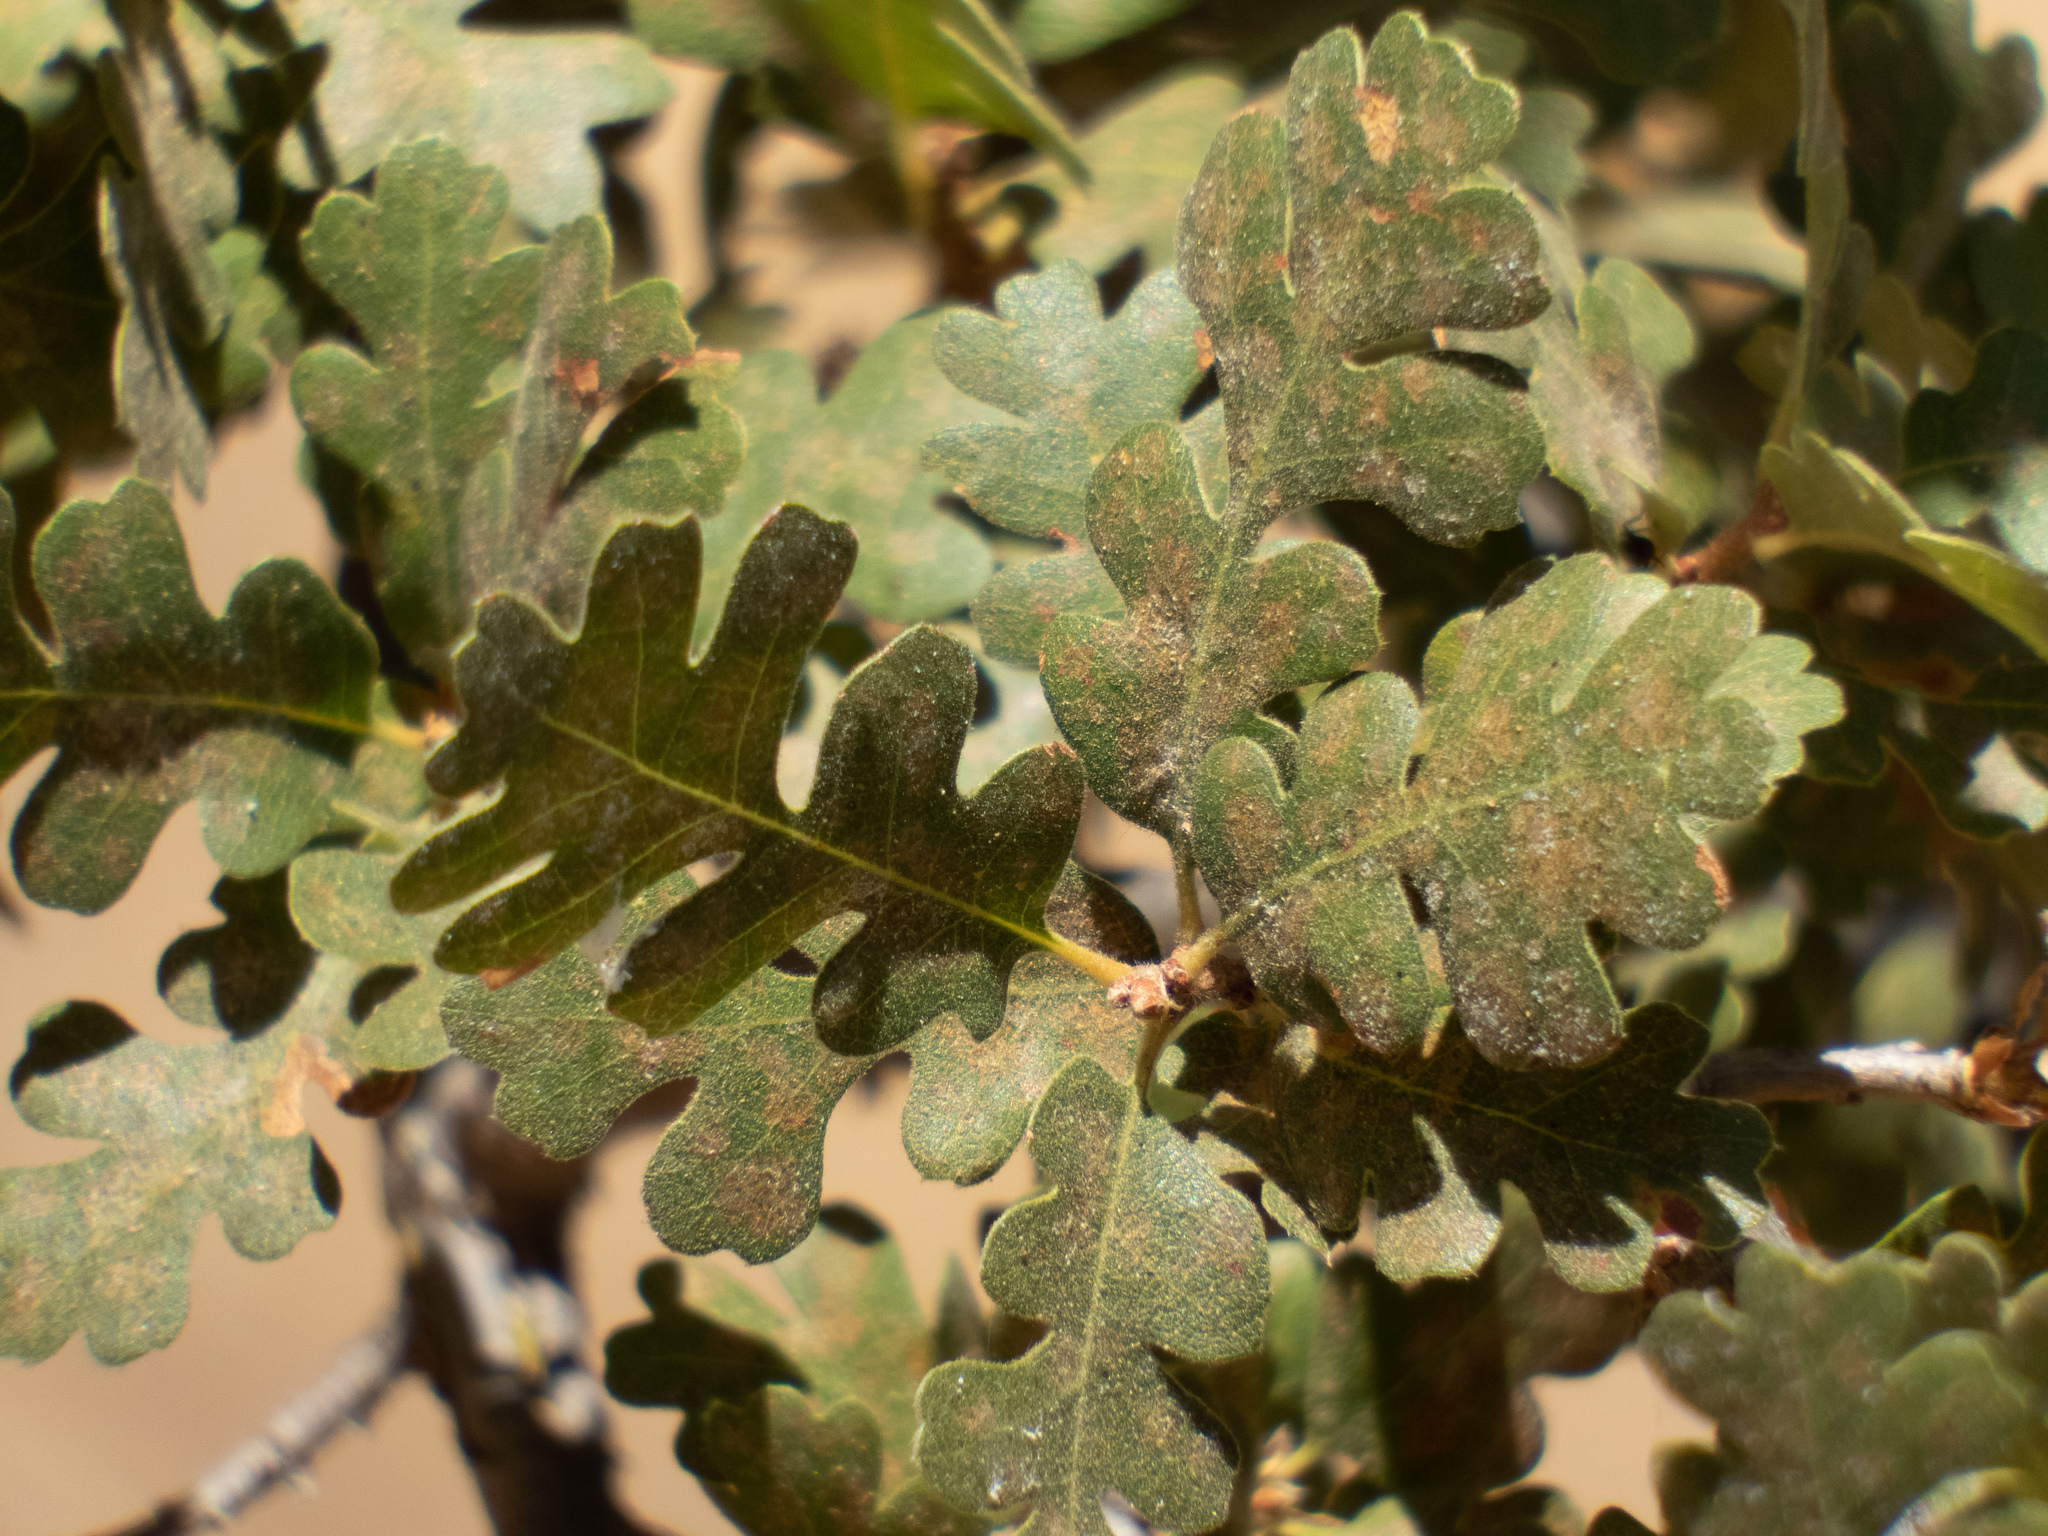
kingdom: Plantae
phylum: Tracheophyta
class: Magnoliopsida
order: Fagales
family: Fagaceae
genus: Quercus
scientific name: Quercus lobata
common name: Valley oak
